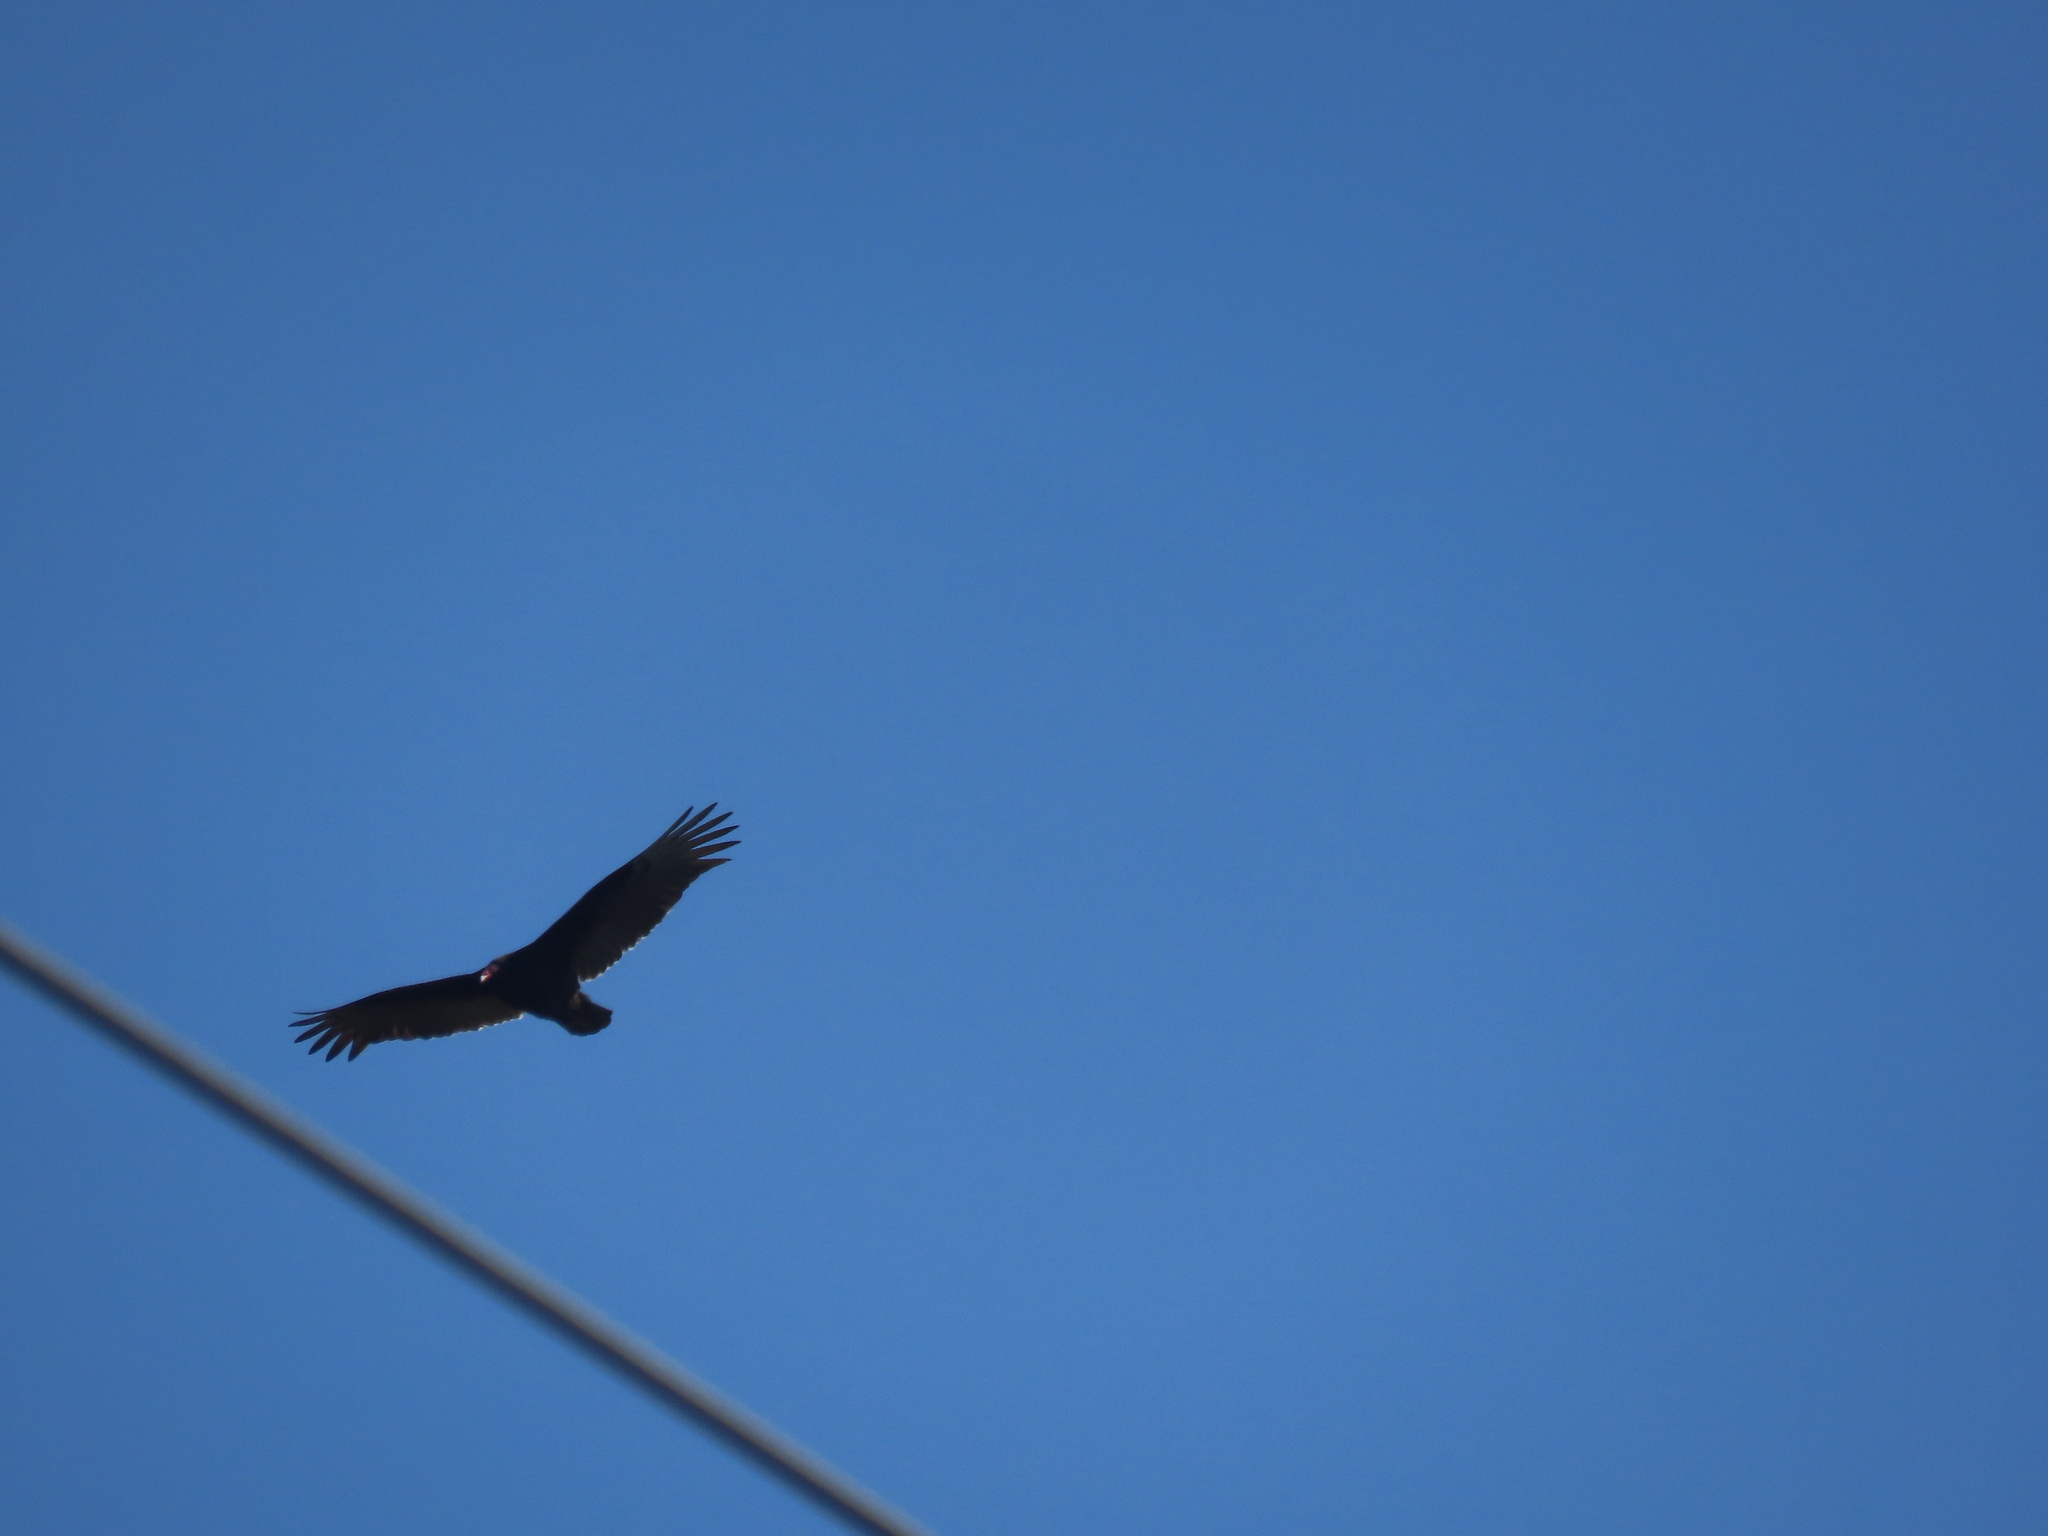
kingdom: Animalia
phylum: Chordata
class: Aves
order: Accipitriformes
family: Cathartidae
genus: Cathartes
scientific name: Cathartes aura
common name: Turkey vulture
